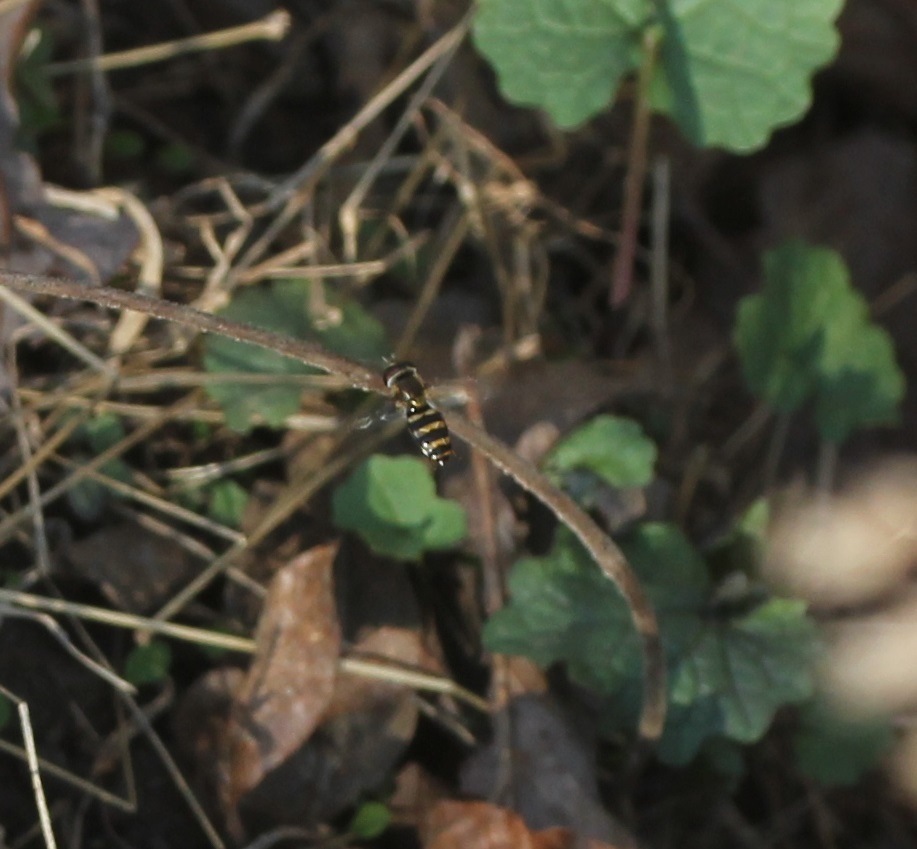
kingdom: Animalia
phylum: Arthropoda
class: Insecta
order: Diptera
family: Syrphidae
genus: Eupeodes
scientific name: Eupeodes
